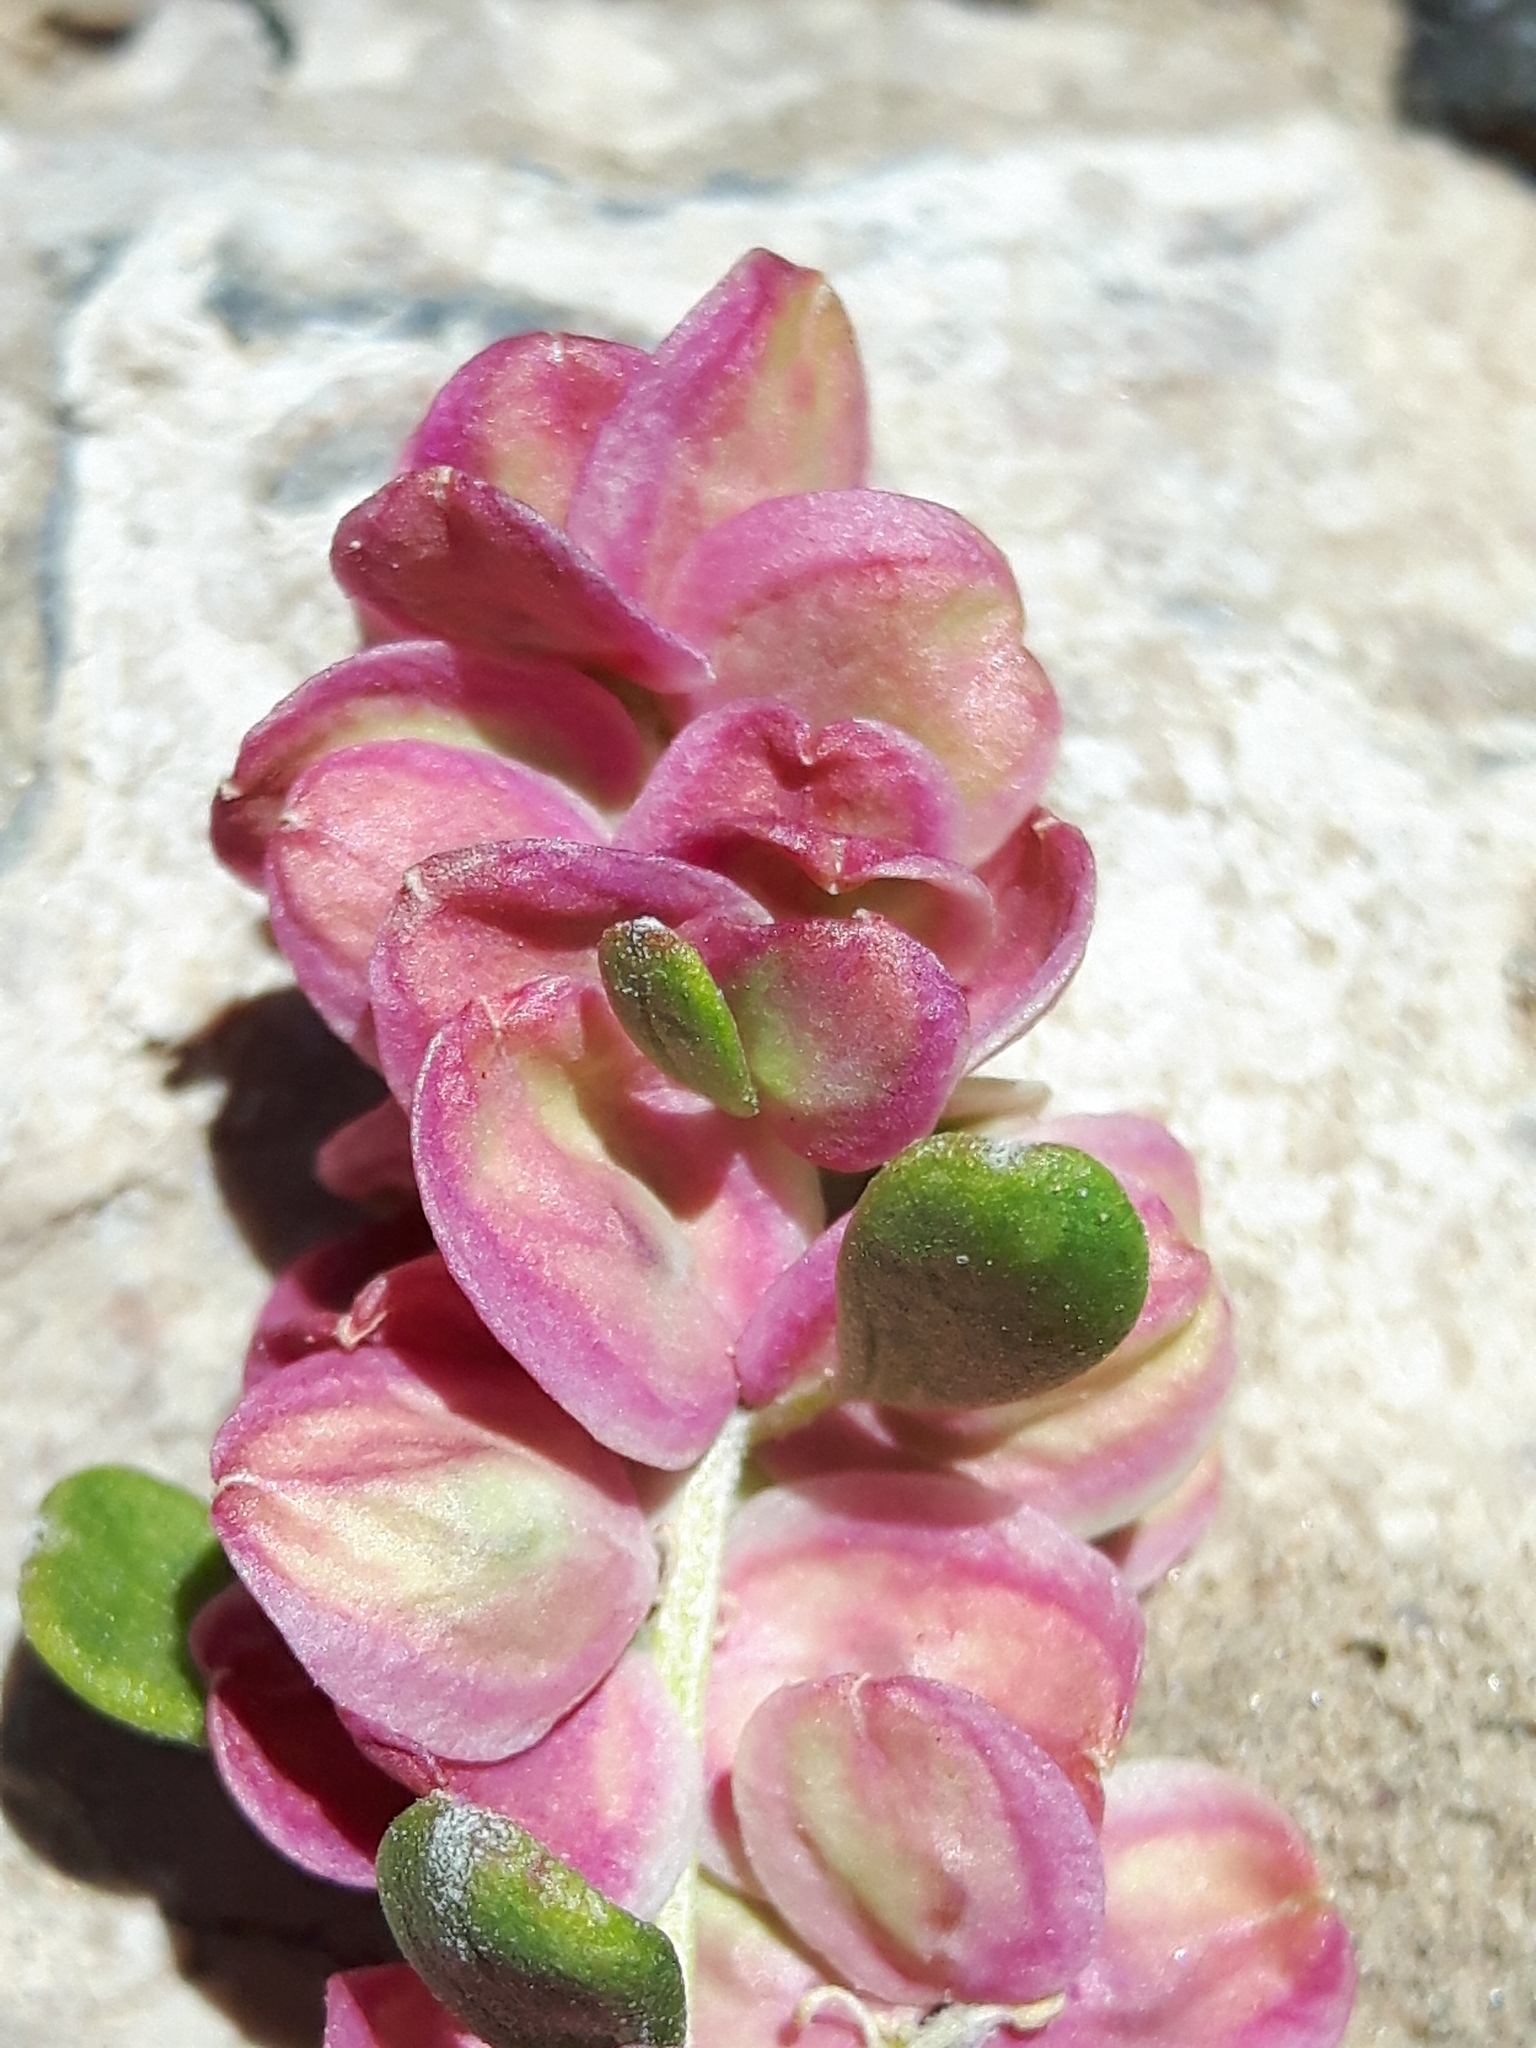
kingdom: Plantae
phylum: Tracheophyta
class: Magnoliopsida
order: Caryophyllales
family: Amaranthaceae
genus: Grayia
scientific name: Grayia spinosa
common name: Spiny hopsage
